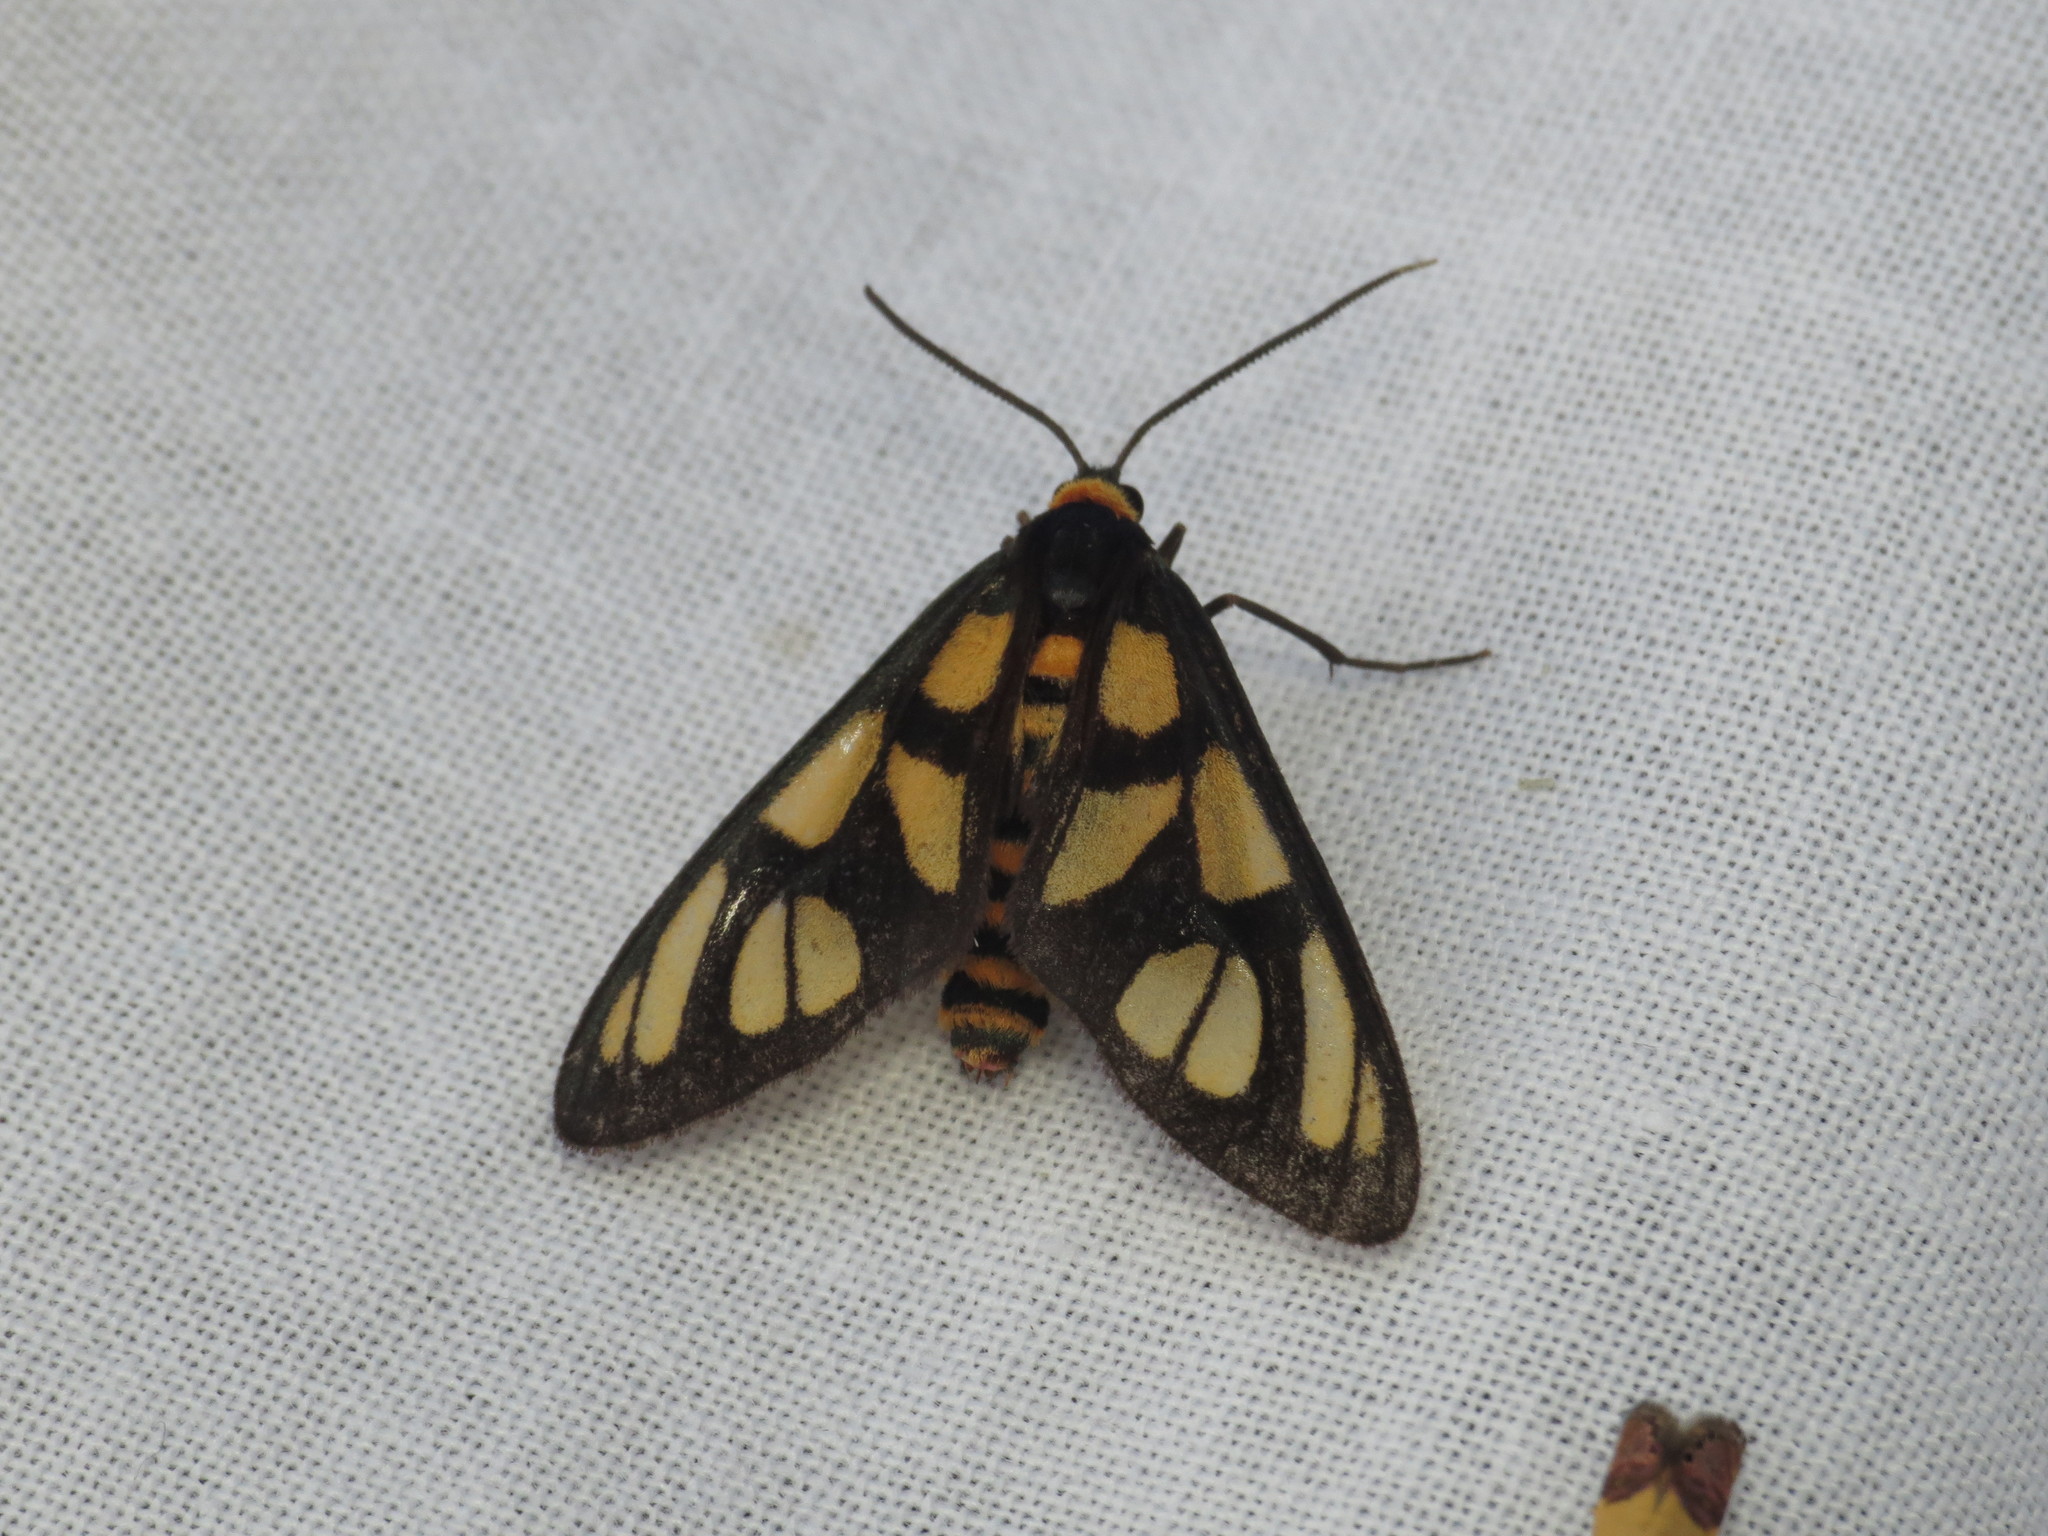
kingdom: Animalia
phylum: Arthropoda
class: Insecta
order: Lepidoptera
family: Erebidae
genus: Amata
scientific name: Amata trigonophora
